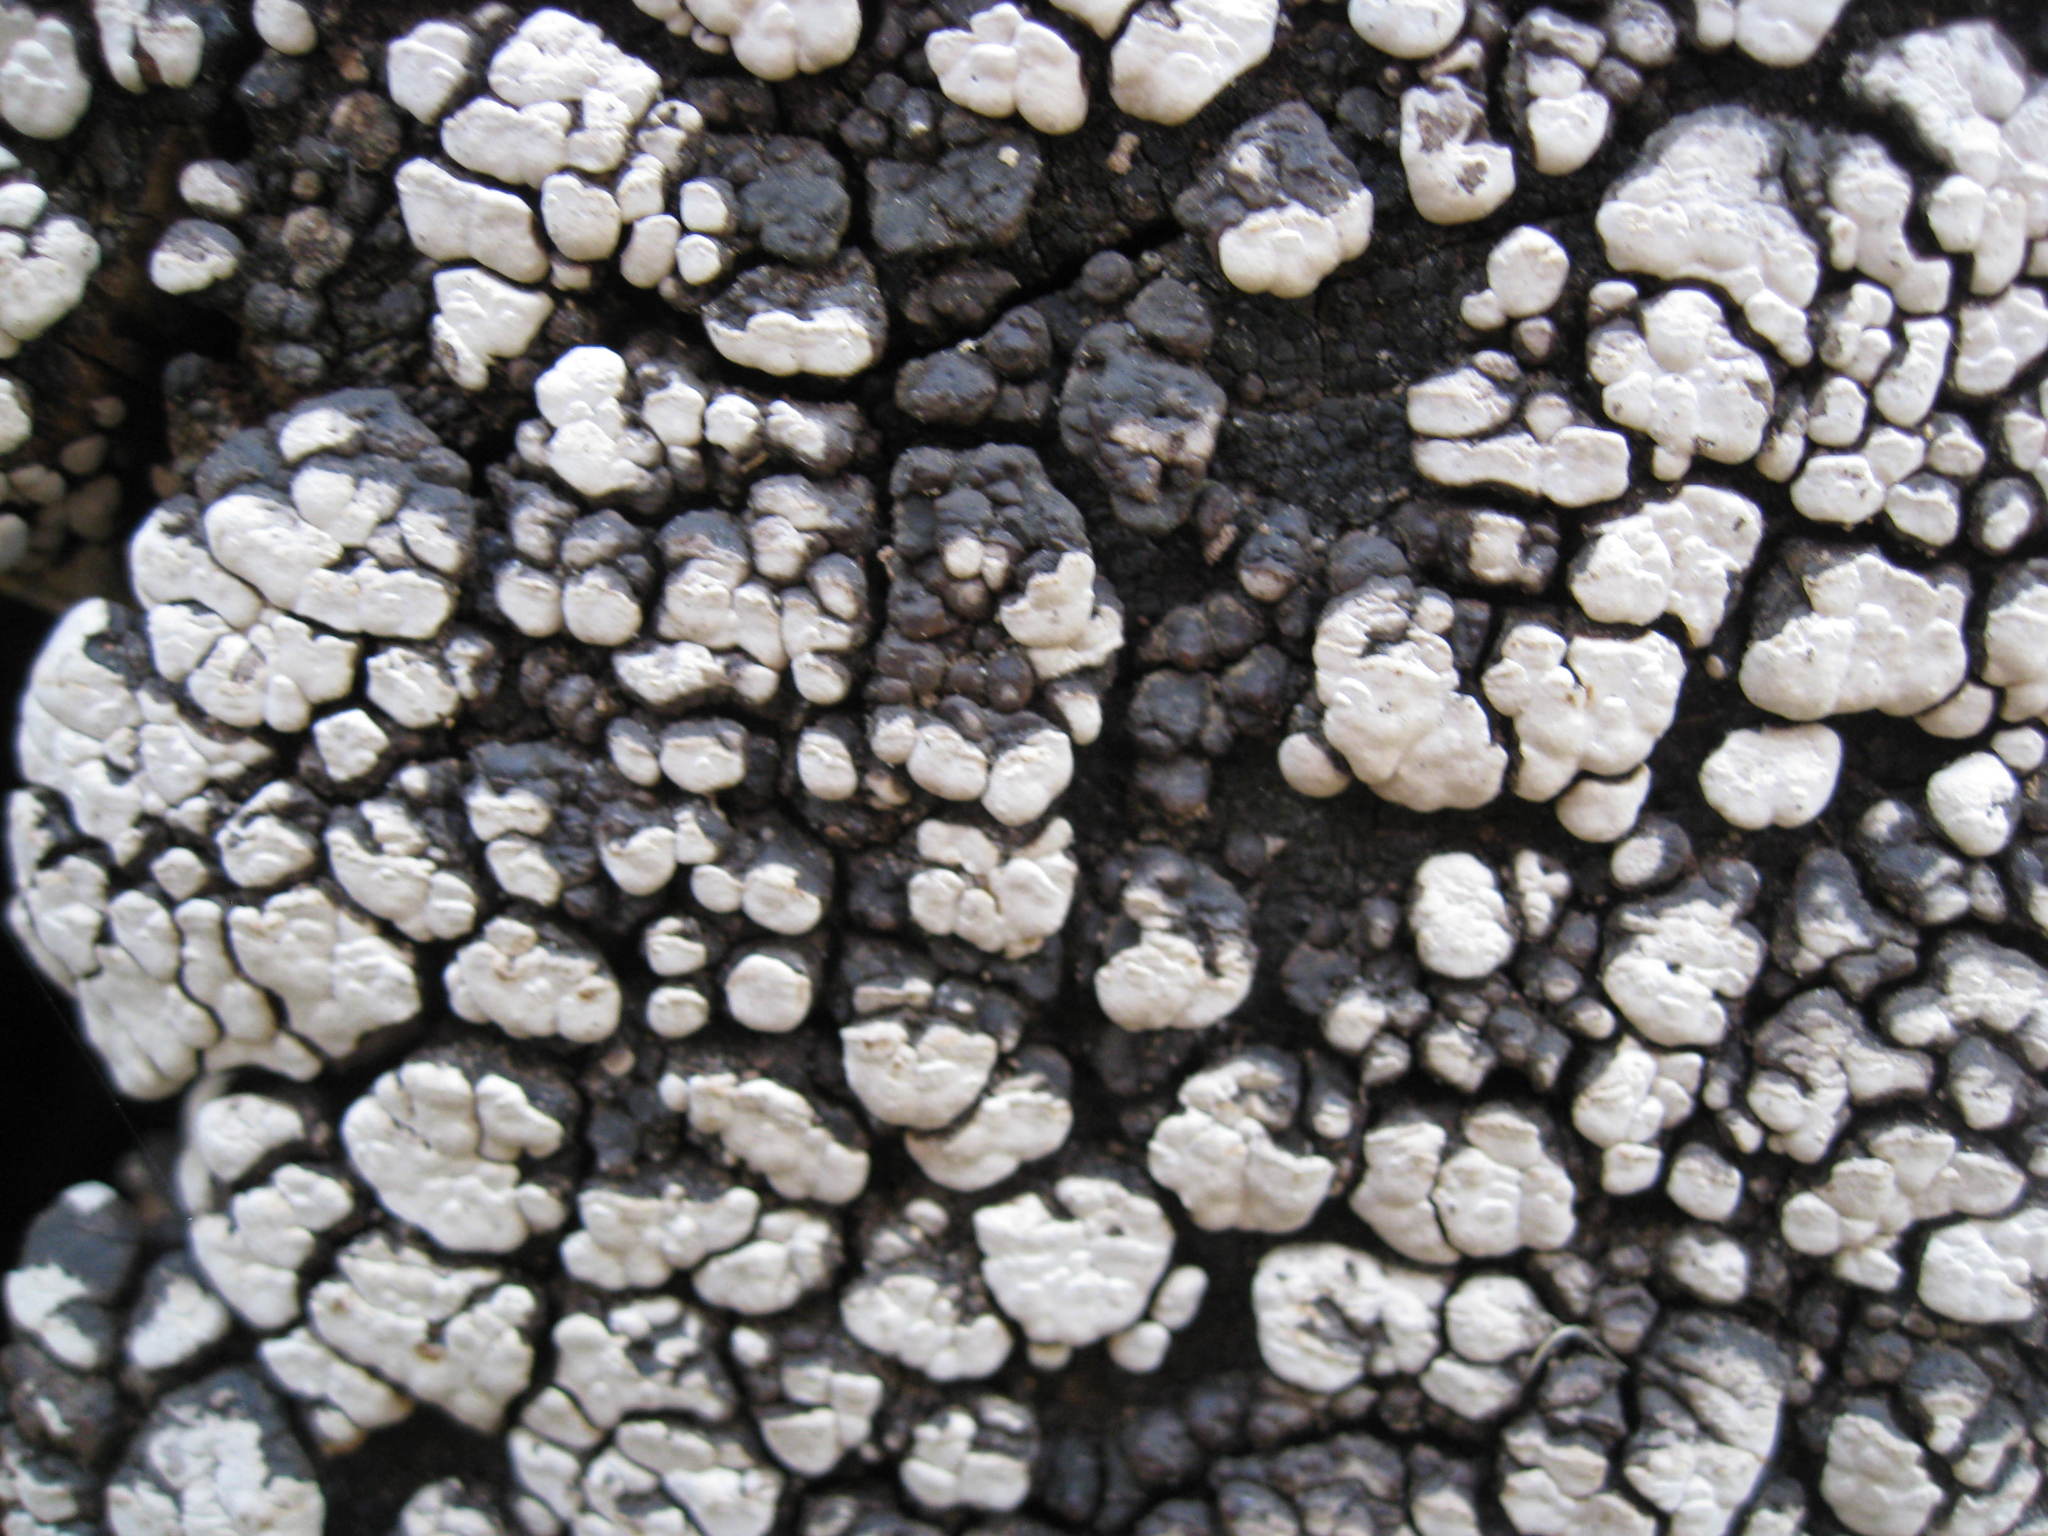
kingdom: Fungi
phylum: Basidiomycota
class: Agaricomycetes
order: Russulales
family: Stereaceae
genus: Xylobolus
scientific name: Xylobolus frustulatus
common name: Ceramic parchment
